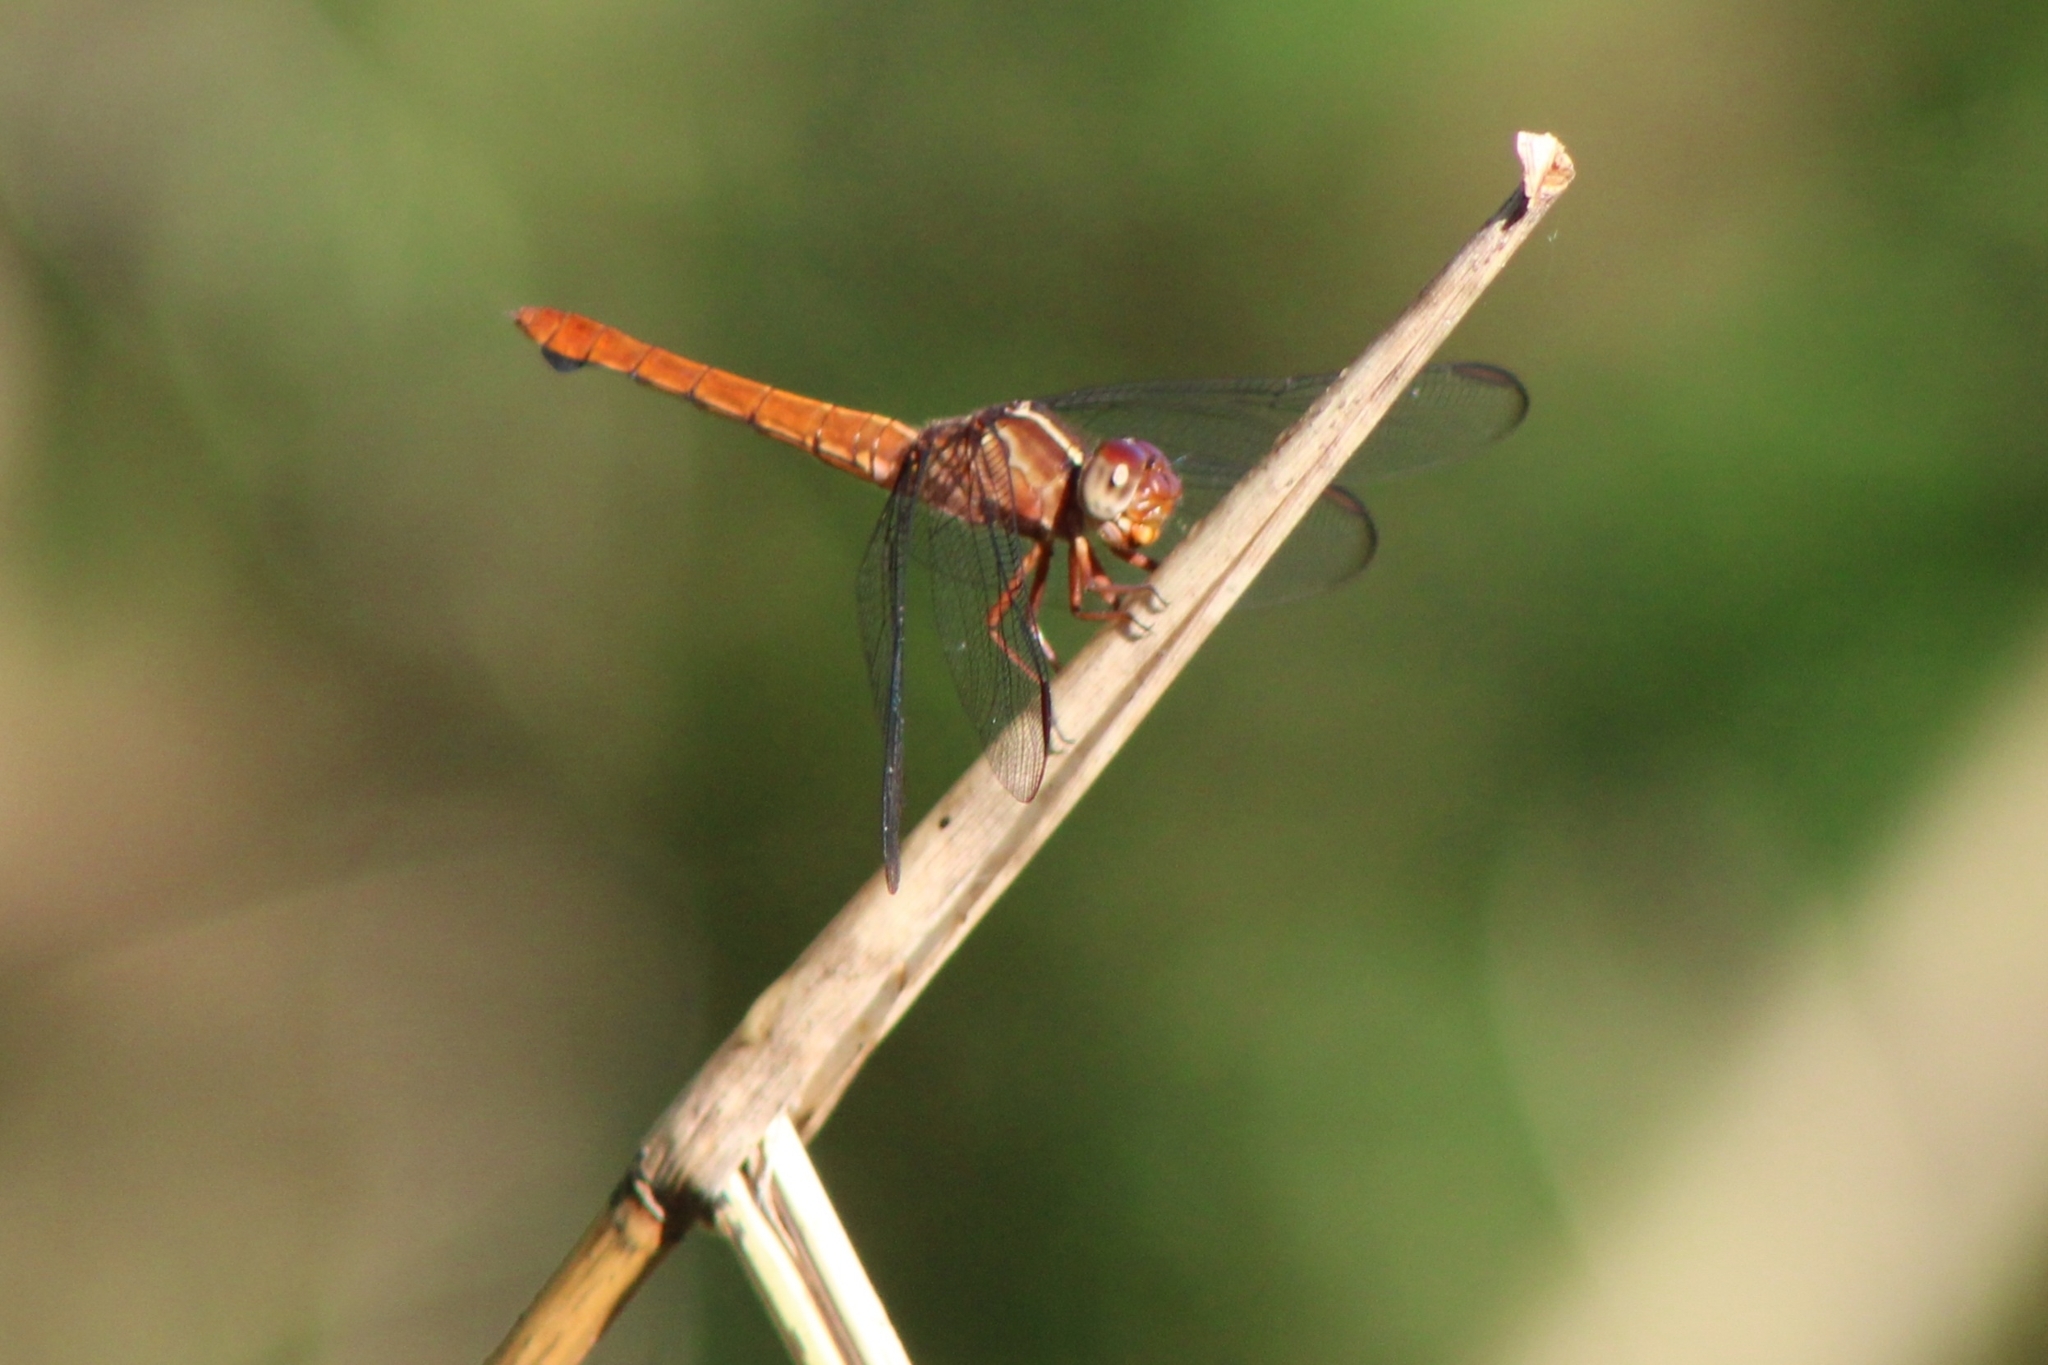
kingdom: Animalia
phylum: Arthropoda
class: Insecta
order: Odonata
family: Libellulidae
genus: Orthemis
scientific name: Orthemis discolor
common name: Carmine skimmer
